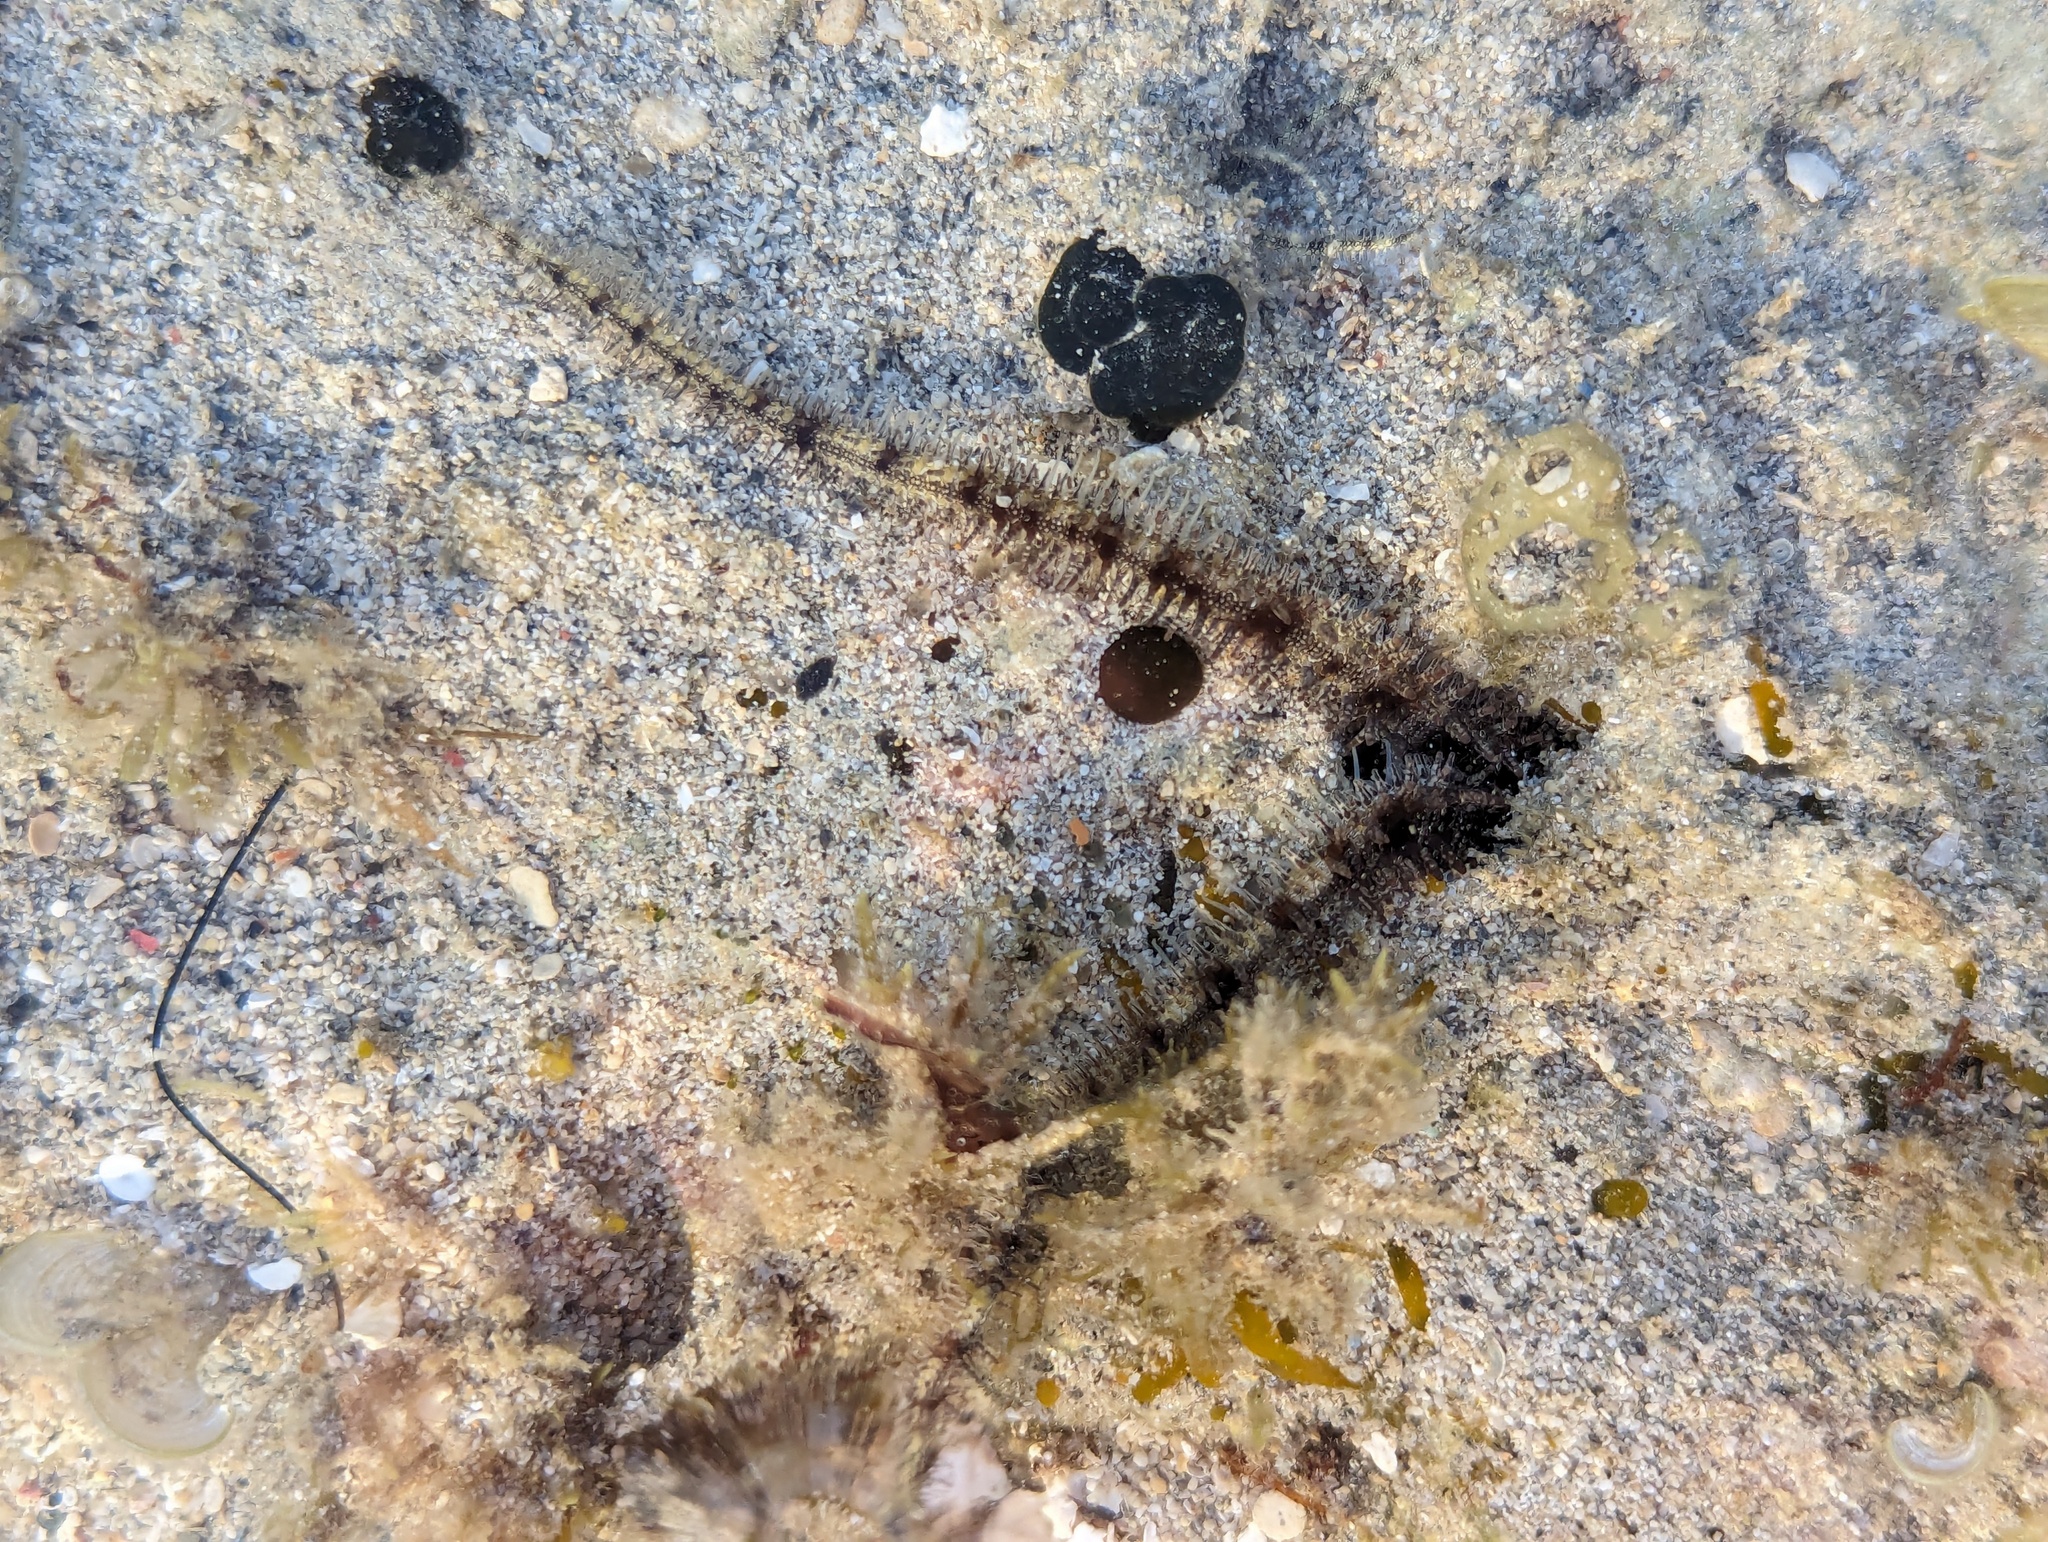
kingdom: Animalia
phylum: Echinodermata
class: Ophiuroidea
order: Ophiacanthida
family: Ophiocomidae
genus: Ophiocoma
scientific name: Ophiocoma scolopendrina
